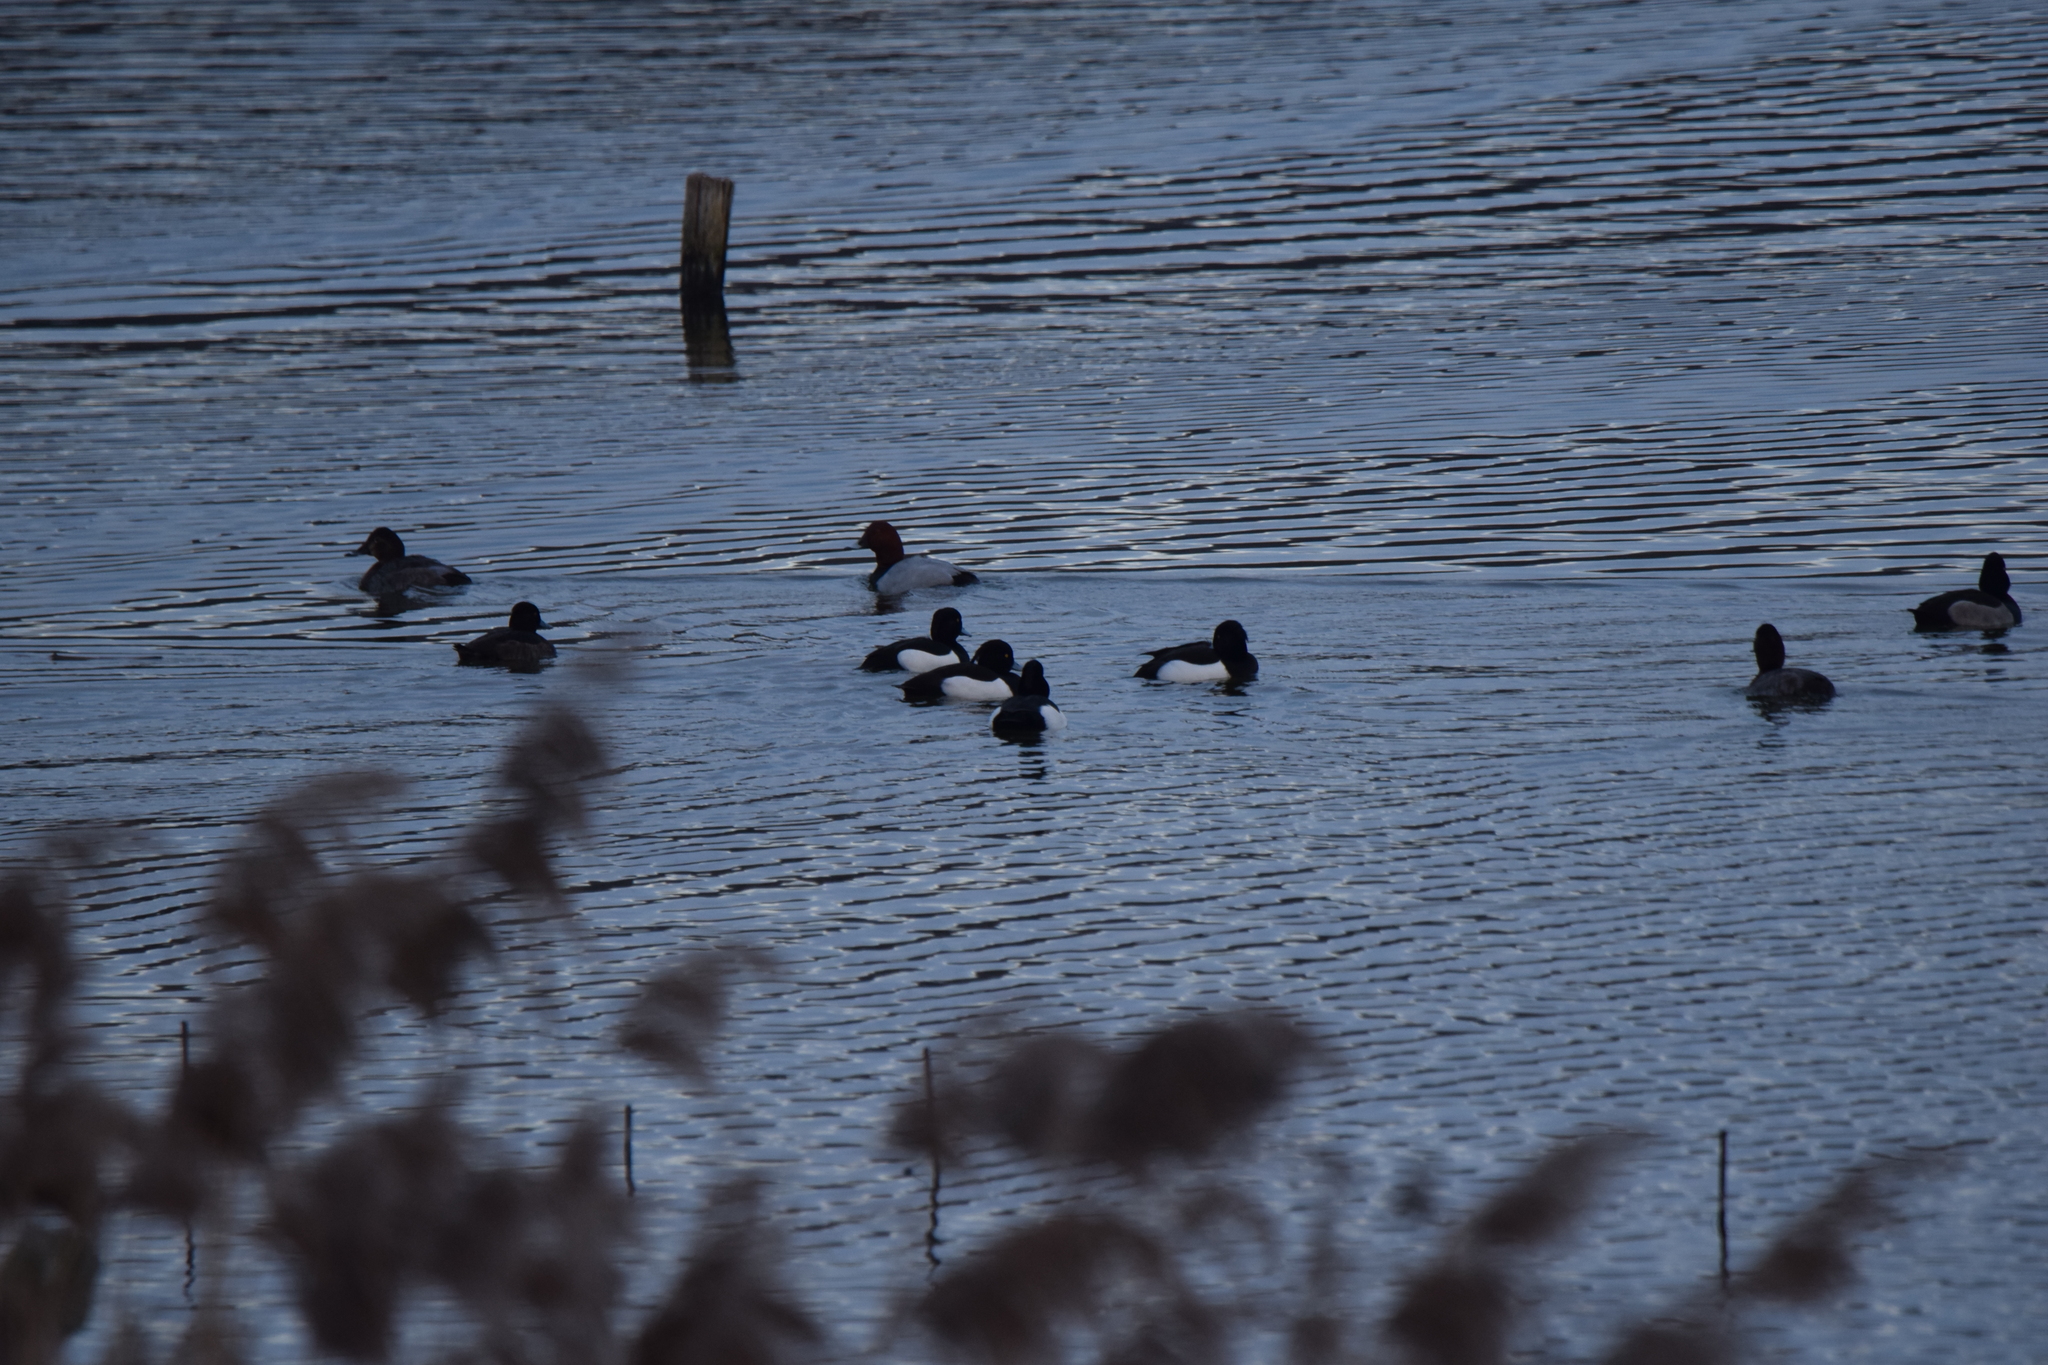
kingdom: Animalia
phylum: Chordata
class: Aves
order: Anseriformes
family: Anatidae
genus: Aythya
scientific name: Aythya ferina
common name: Common pochard
